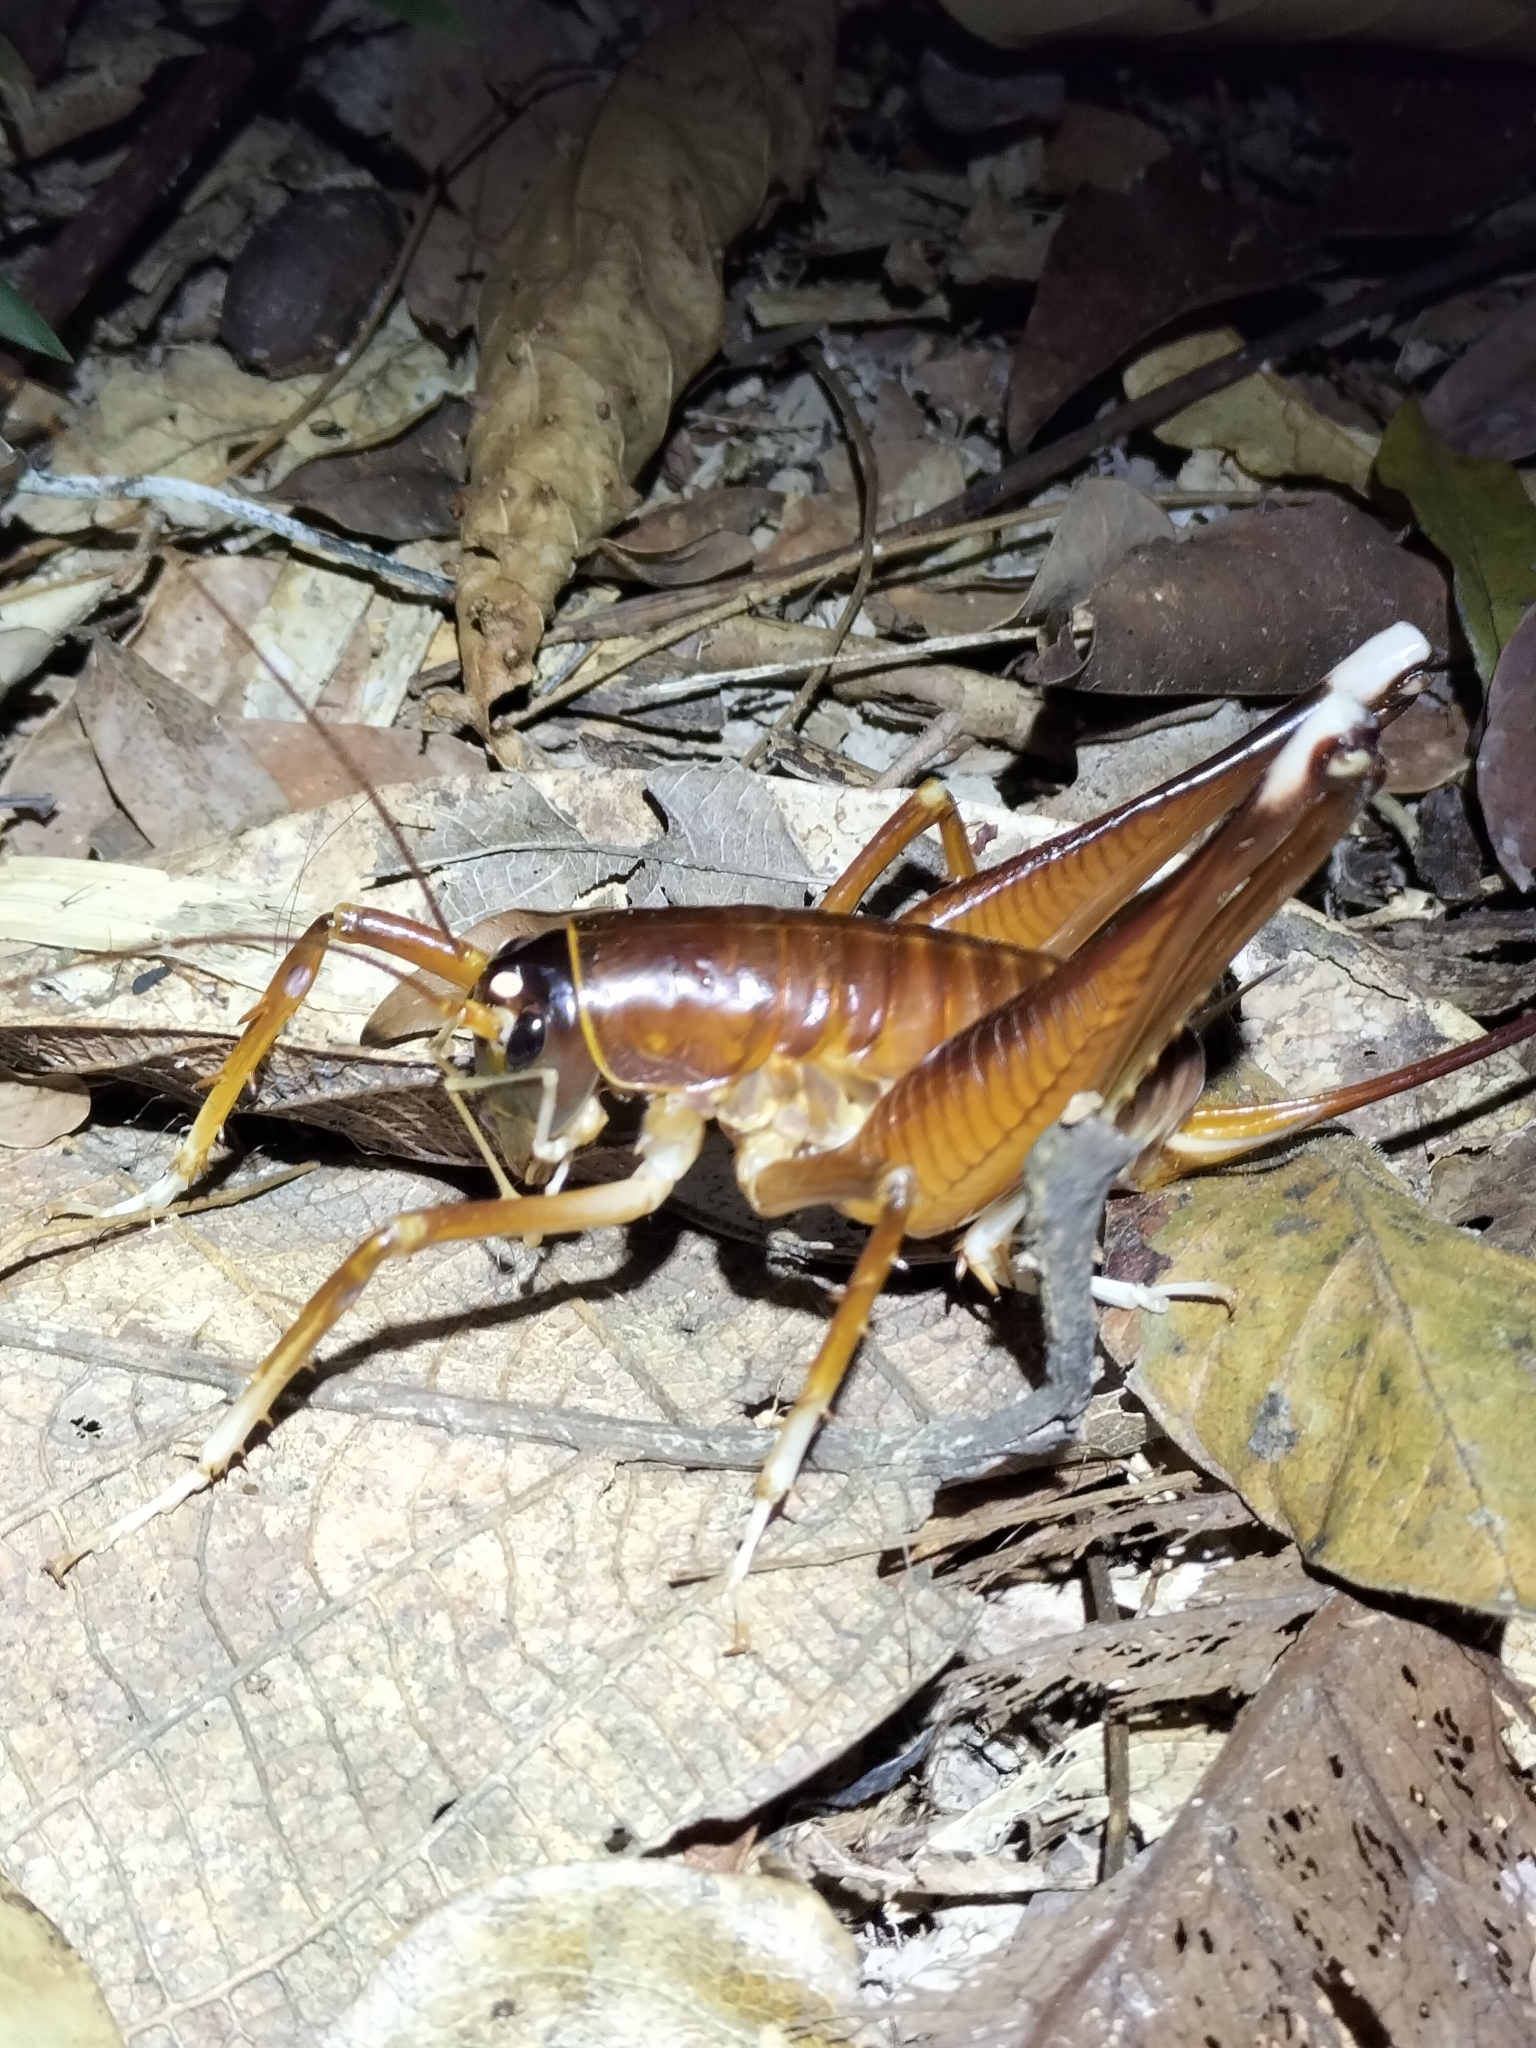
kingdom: Animalia
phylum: Arthropoda
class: Insecta
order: Orthoptera
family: Anostostomatidae
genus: Penalva
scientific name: Penalva flavocalceata
